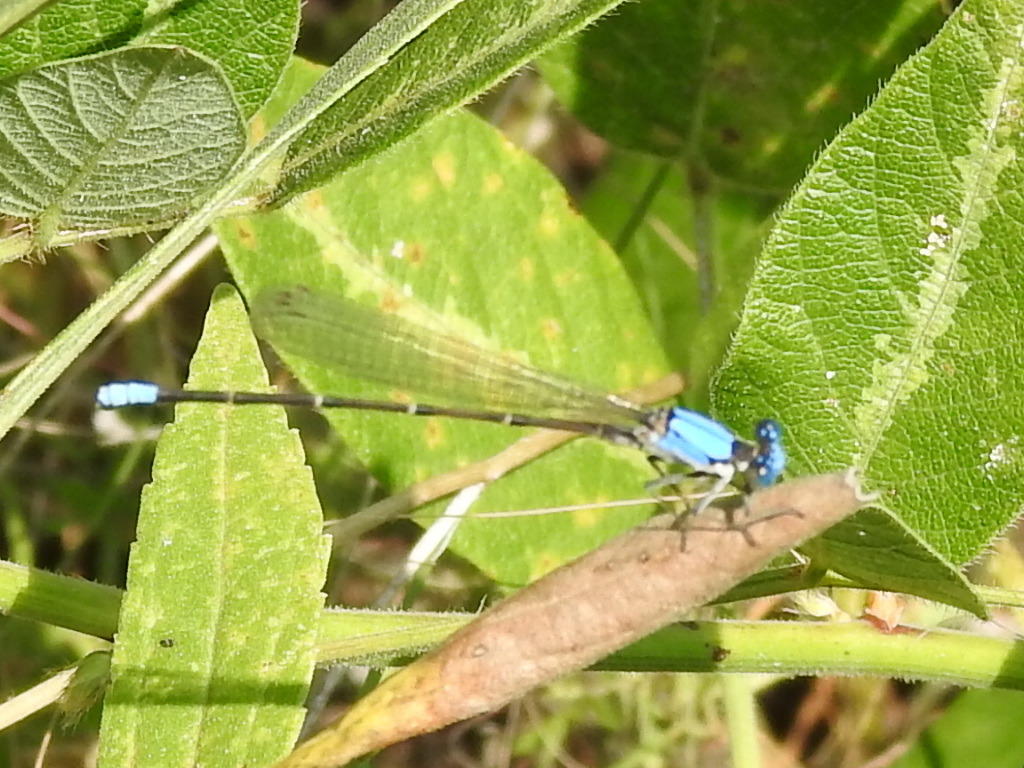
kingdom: Animalia
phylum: Arthropoda
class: Insecta
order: Odonata
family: Coenagrionidae
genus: Argia
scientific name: Argia apicalis
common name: Blue-fronted dancer
